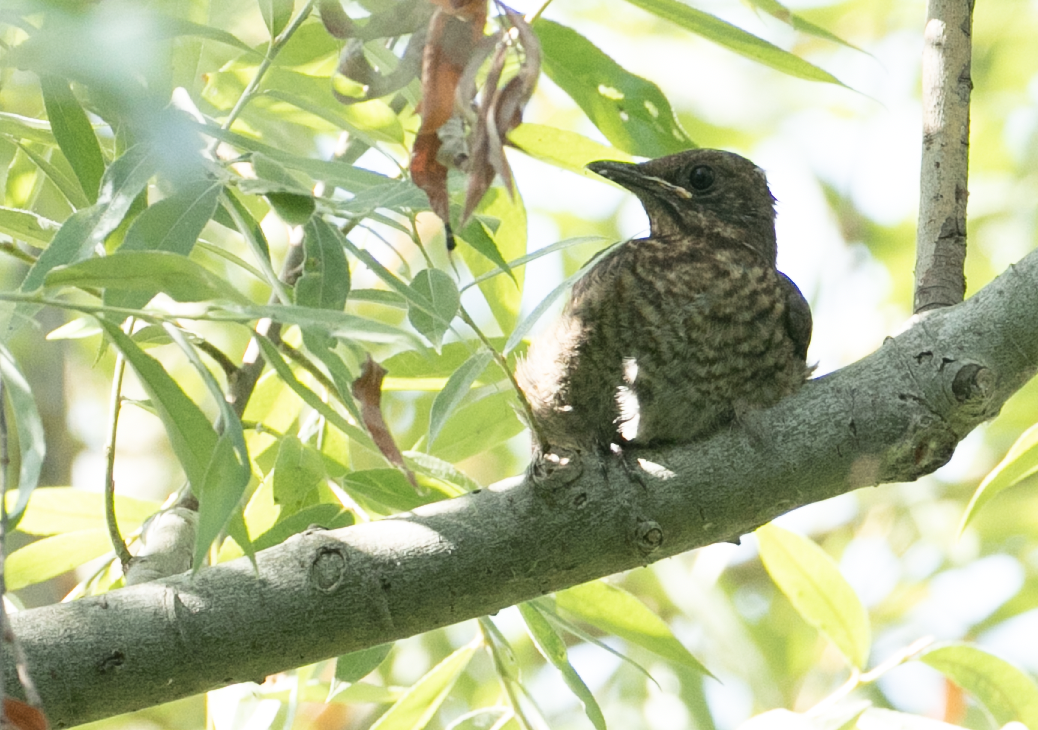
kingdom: Animalia
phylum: Chordata
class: Aves
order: Passeriformes
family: Turdidae
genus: Turdus
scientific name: Turdus merula
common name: Common blackbird
